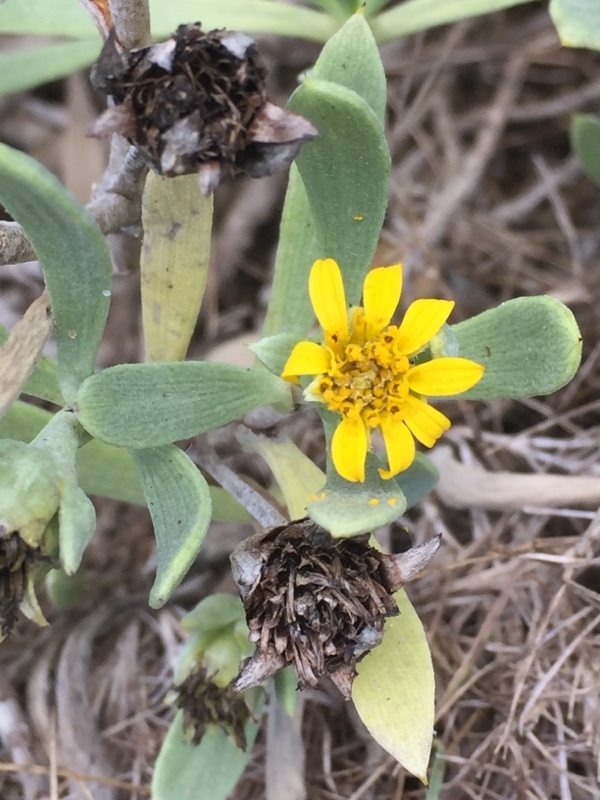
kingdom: Plantae
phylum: Tracheophyta
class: Magnoliopsida
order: Asterales
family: Asteraceae
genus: Borrichia
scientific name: Borrichia frutescens
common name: Sea oxeye
